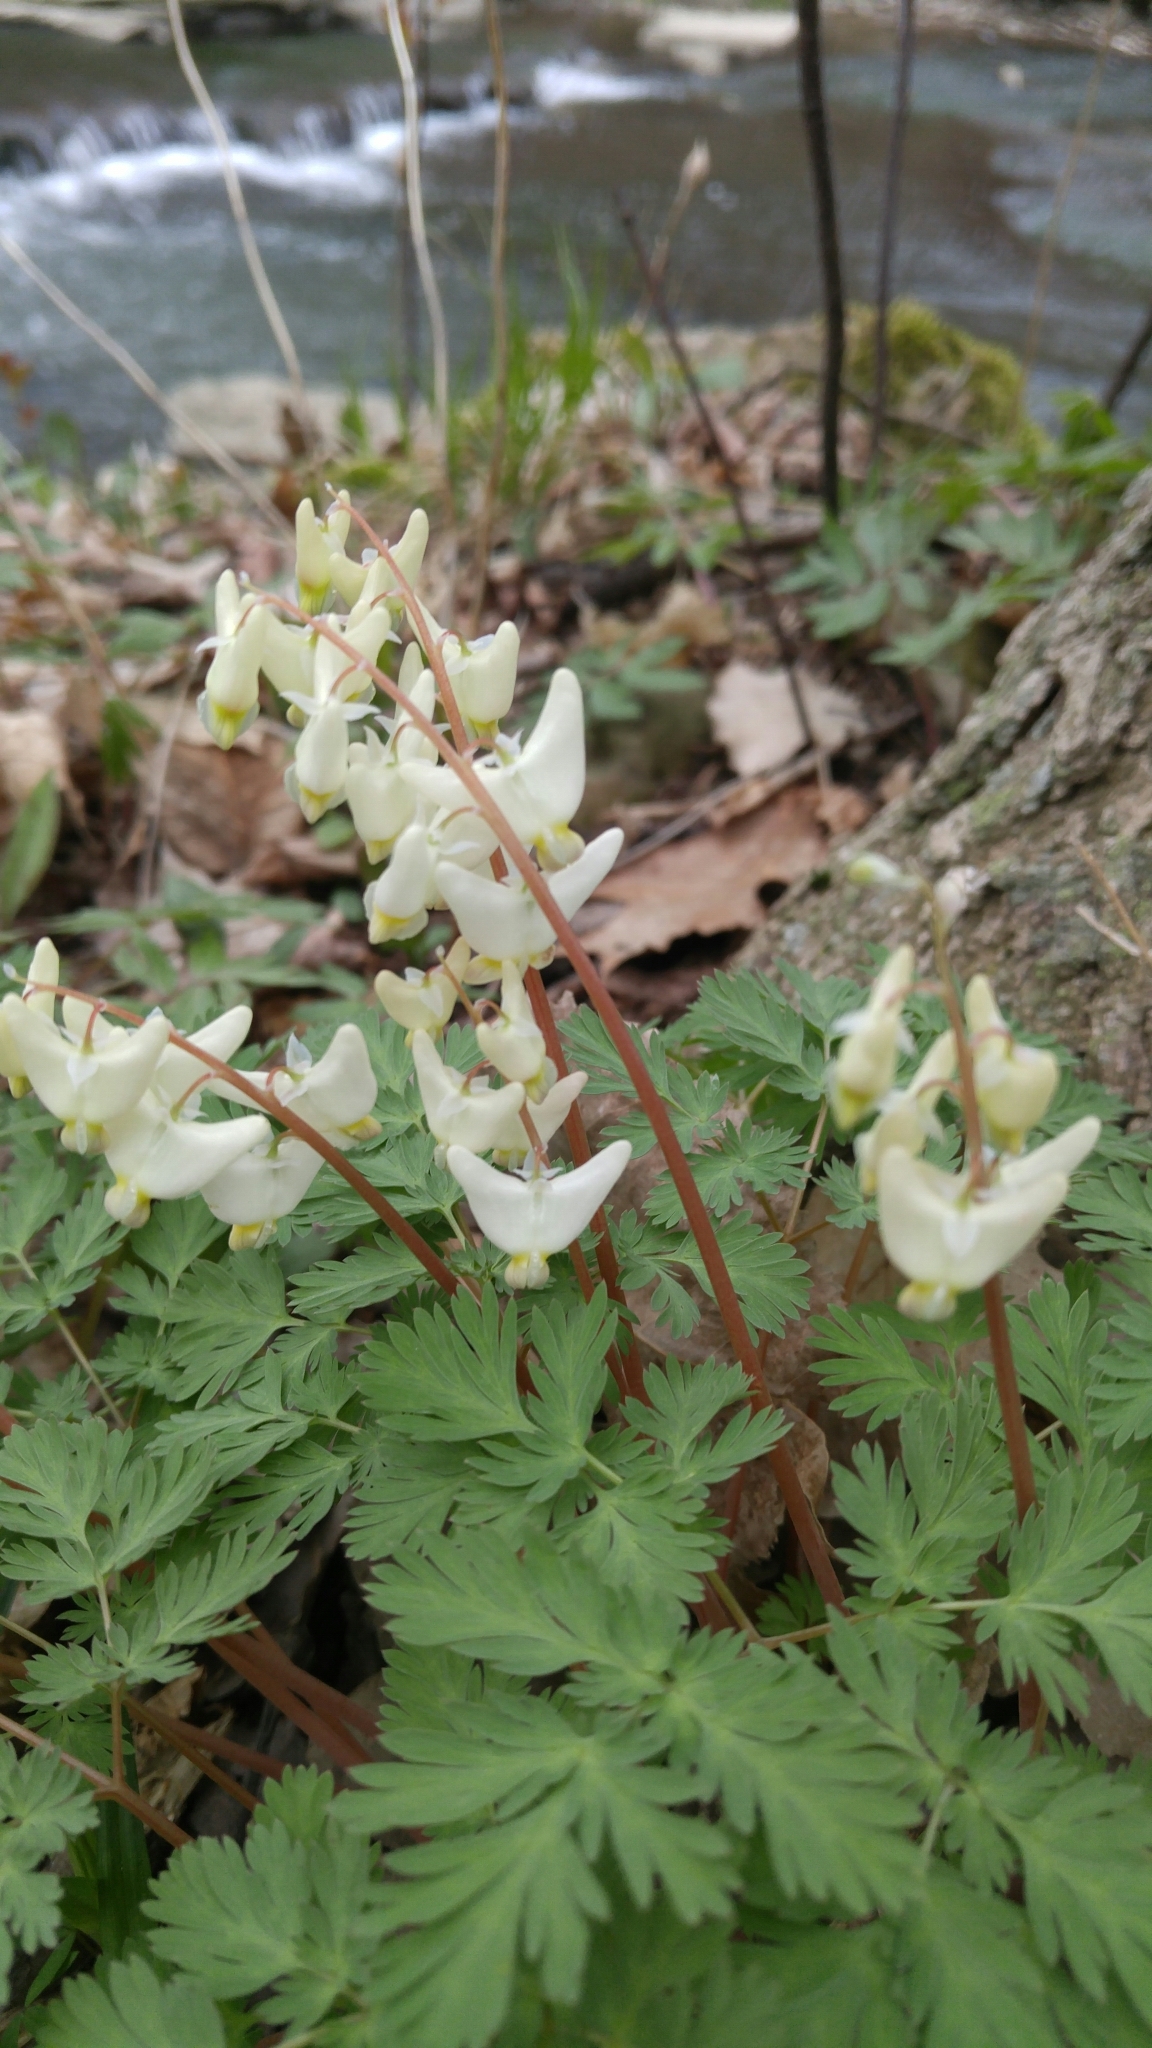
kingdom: Plantae
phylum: Tracheophyta
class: Magnoliopsida
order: Ranunculales
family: Papaveraceae
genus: Dicentra
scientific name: Dicentra cucullaria
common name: Dutchman's breeches
